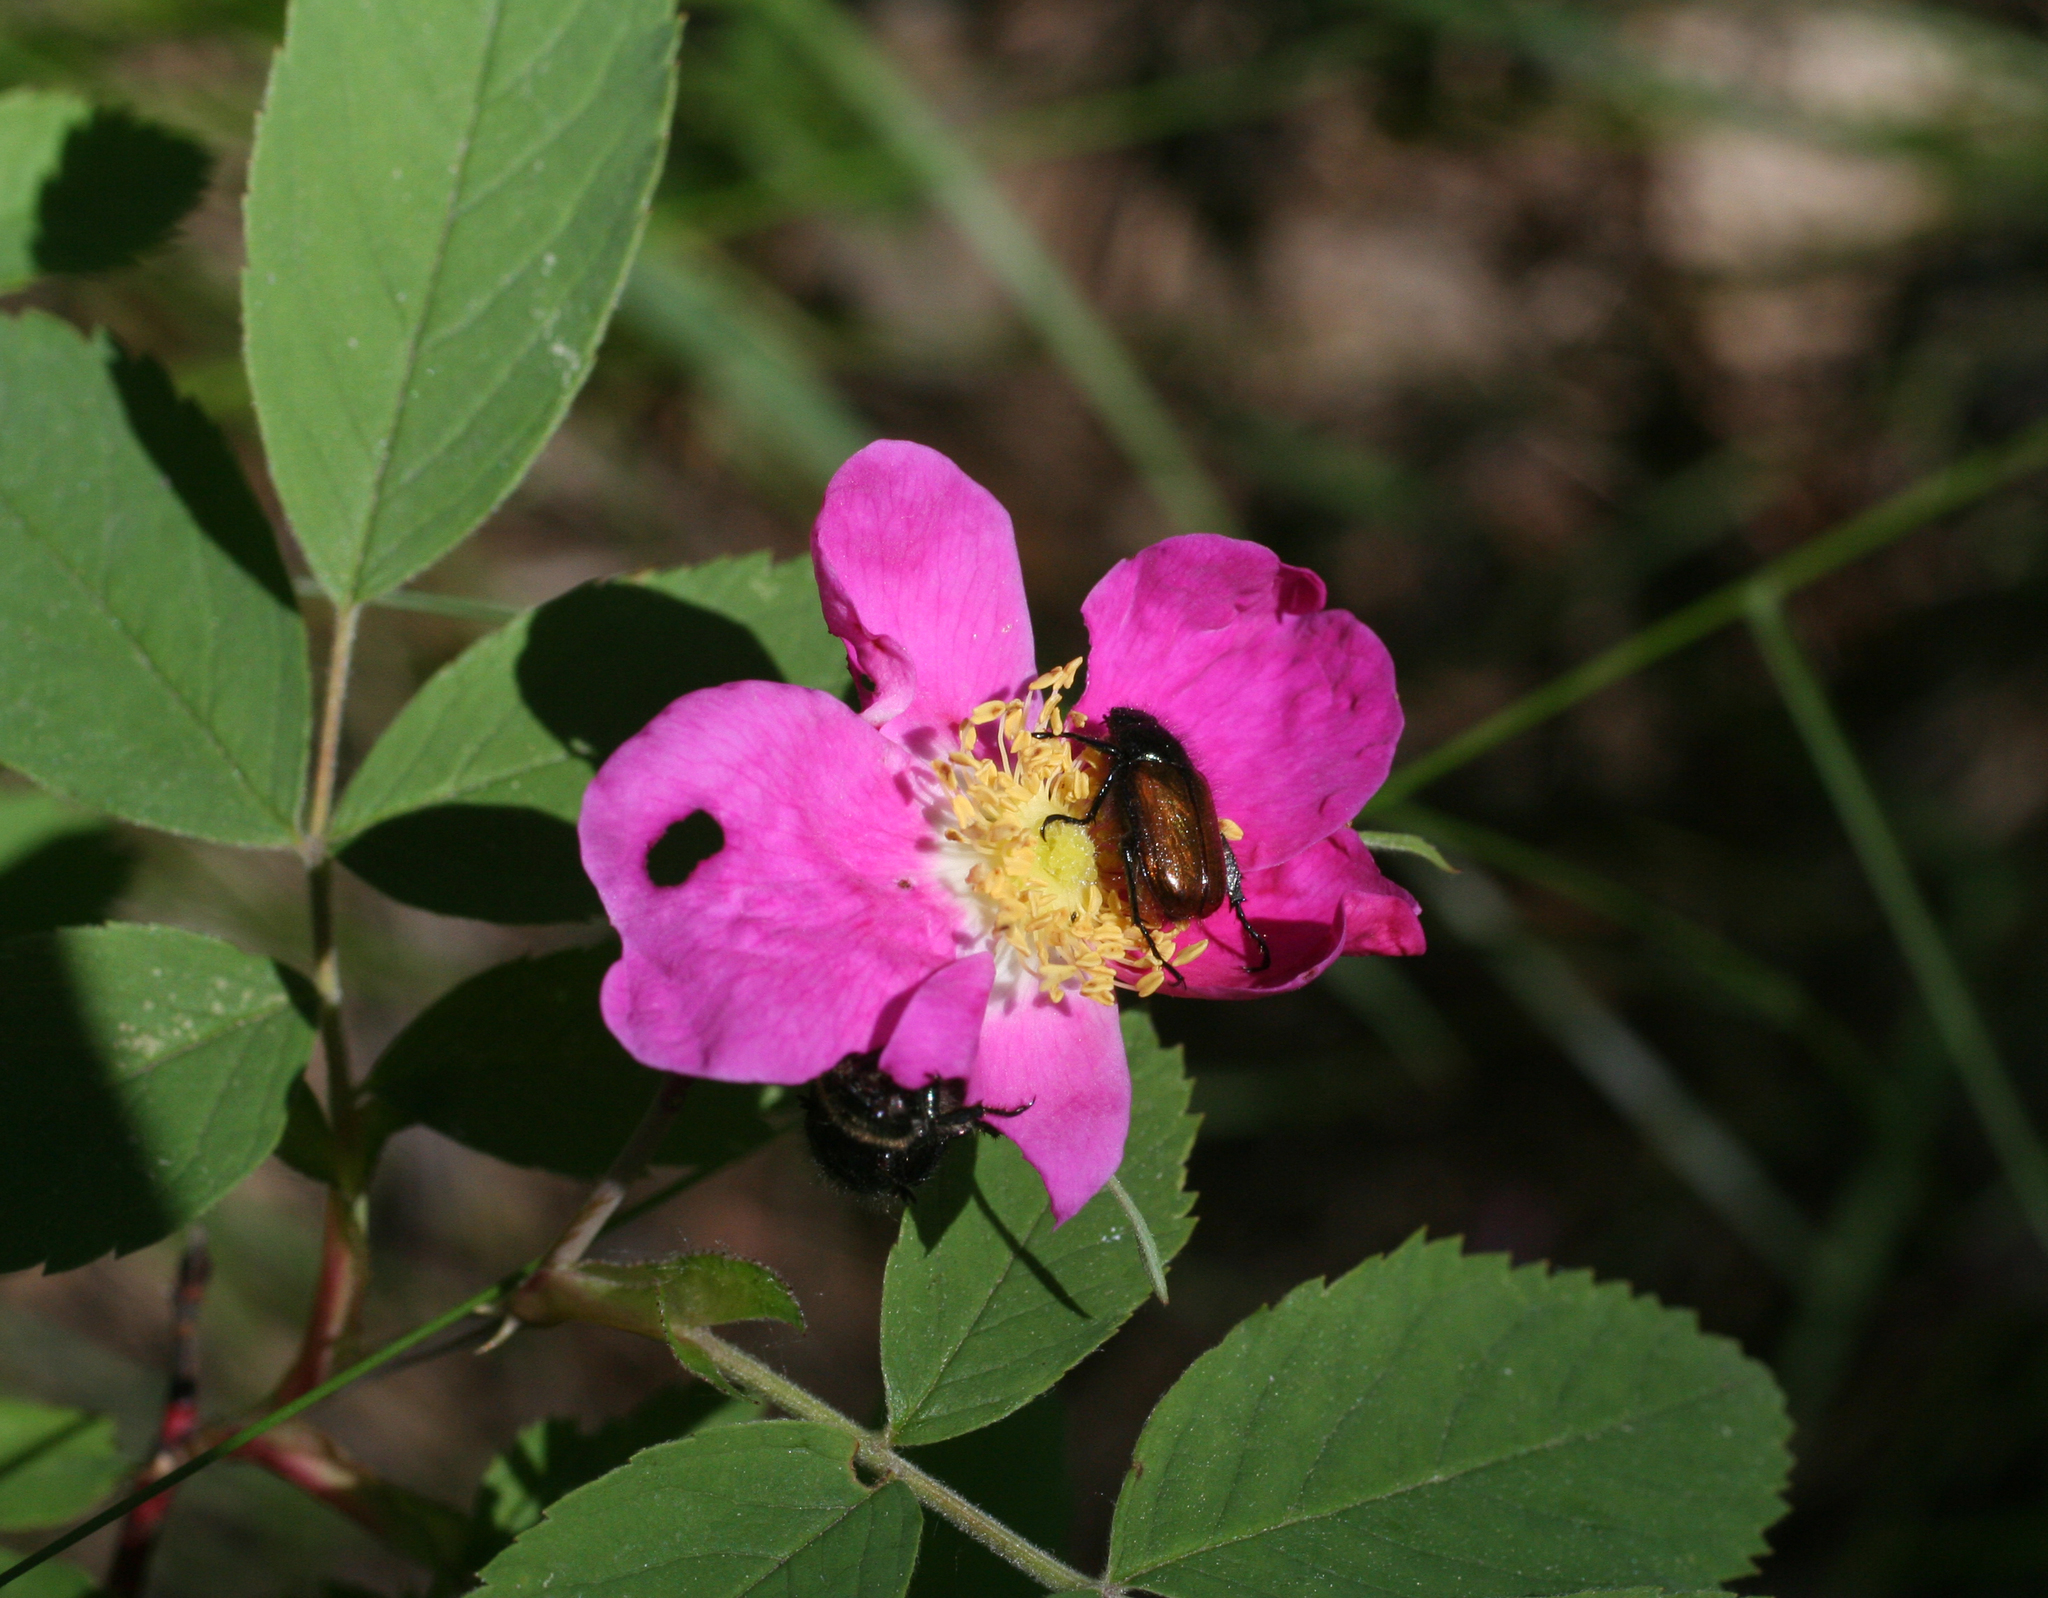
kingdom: Plantae
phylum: Tracheophyta
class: Magnoliopsida
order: Rosales
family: Rosaceae
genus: Rosa
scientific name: Rosa majalis
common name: Cinnamon rose
